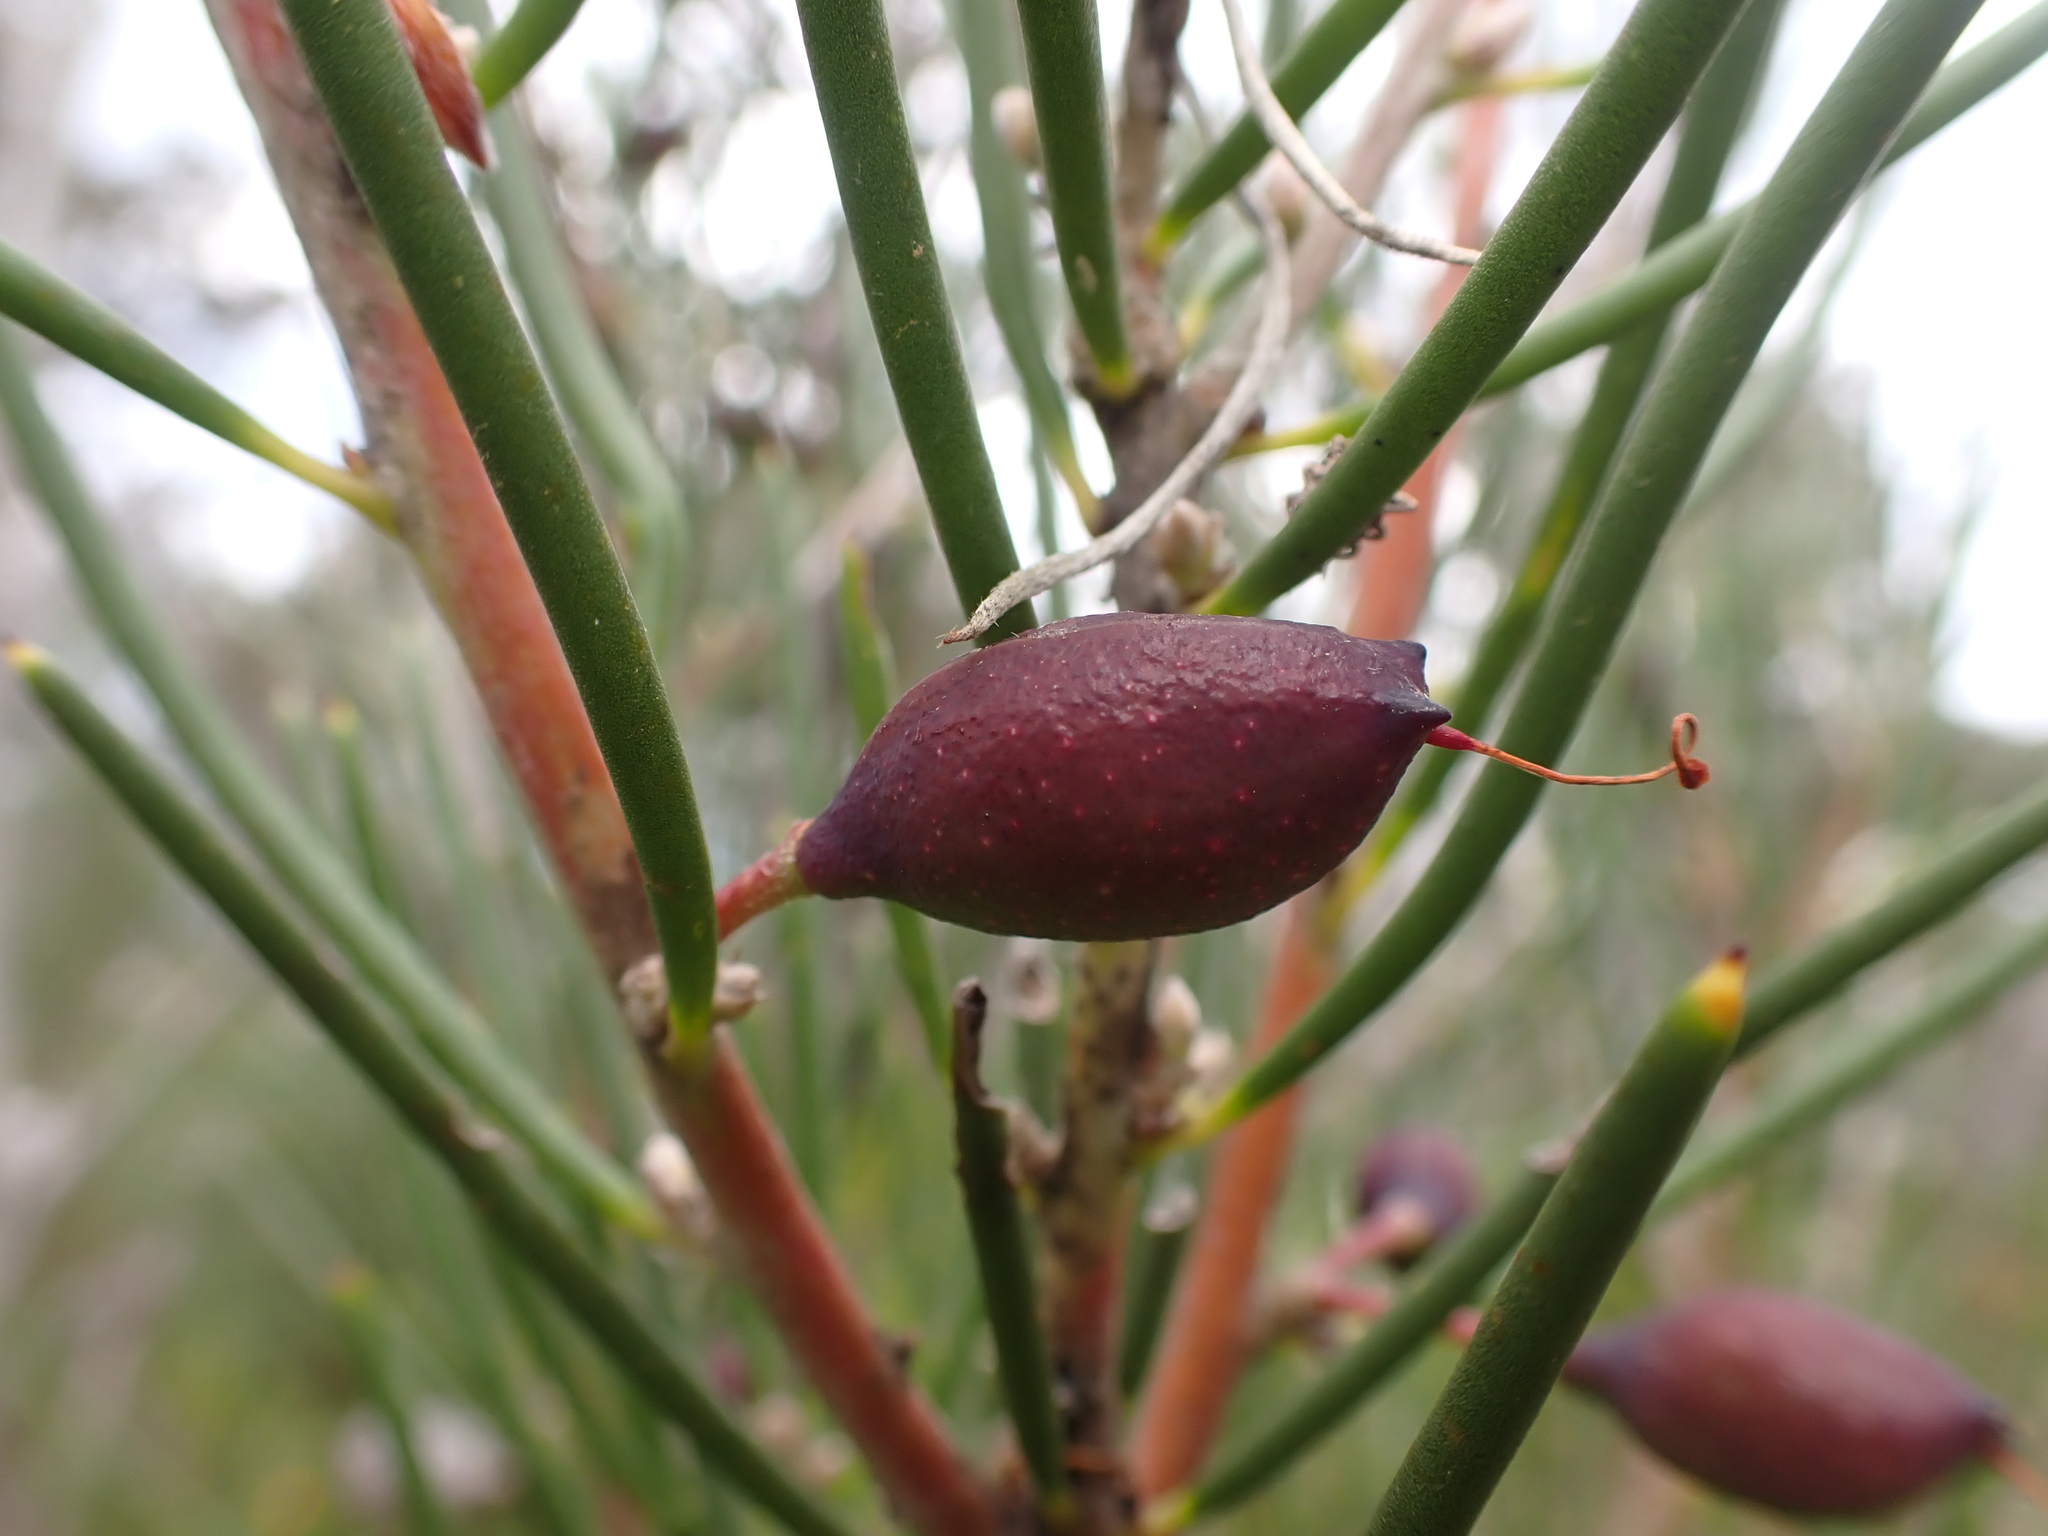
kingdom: Plantae
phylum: Tracheophyta
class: Magnoliopsida
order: Proteales
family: Proteaceae
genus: Hakea
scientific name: Hakea lissosperma
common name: Mountain needlewood
